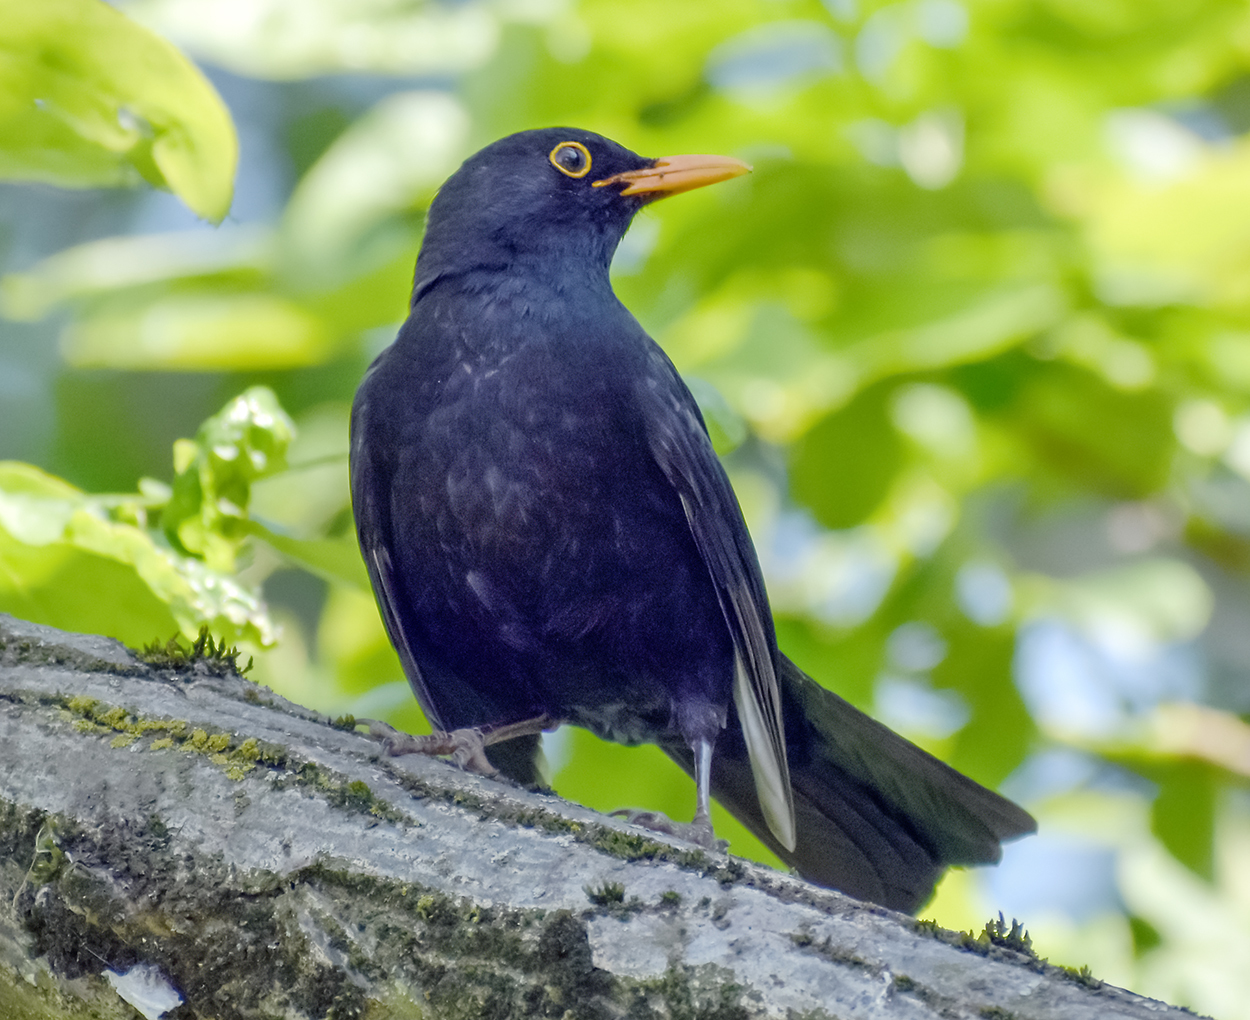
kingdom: Animalia
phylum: Chordata
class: Aves
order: Passeriformes
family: Turdidae
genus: Turdus
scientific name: Turdus merula
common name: Common blackbird
